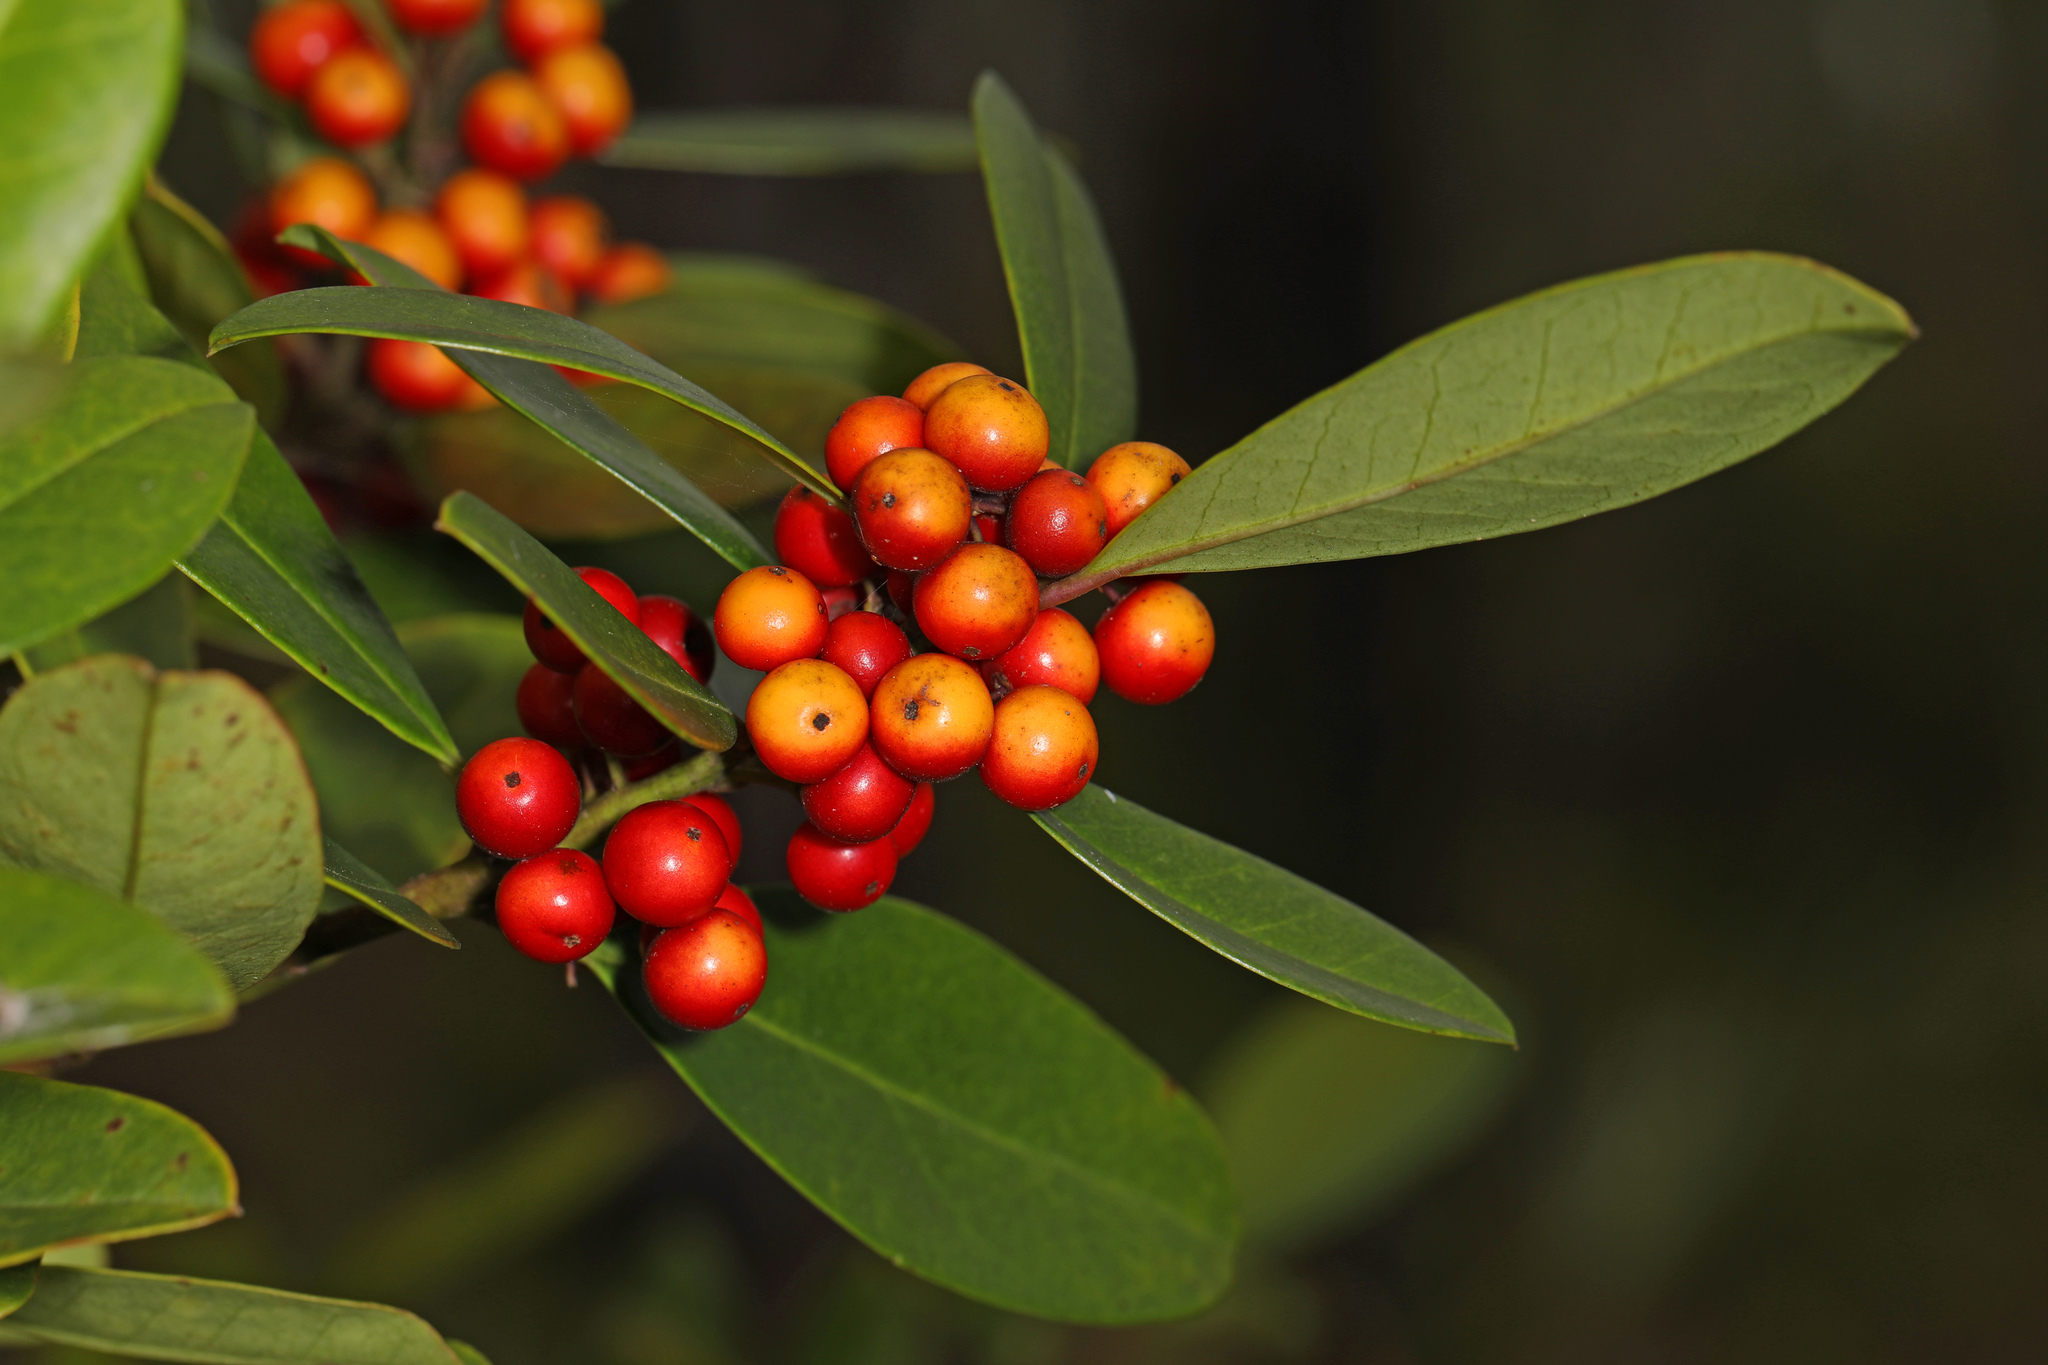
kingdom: Plantae
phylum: Tracheophyta
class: Magnoliopsida
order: Aquifoliales
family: Aquifoliaceae
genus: Ilex
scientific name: Ilex cassine
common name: Dahoon
